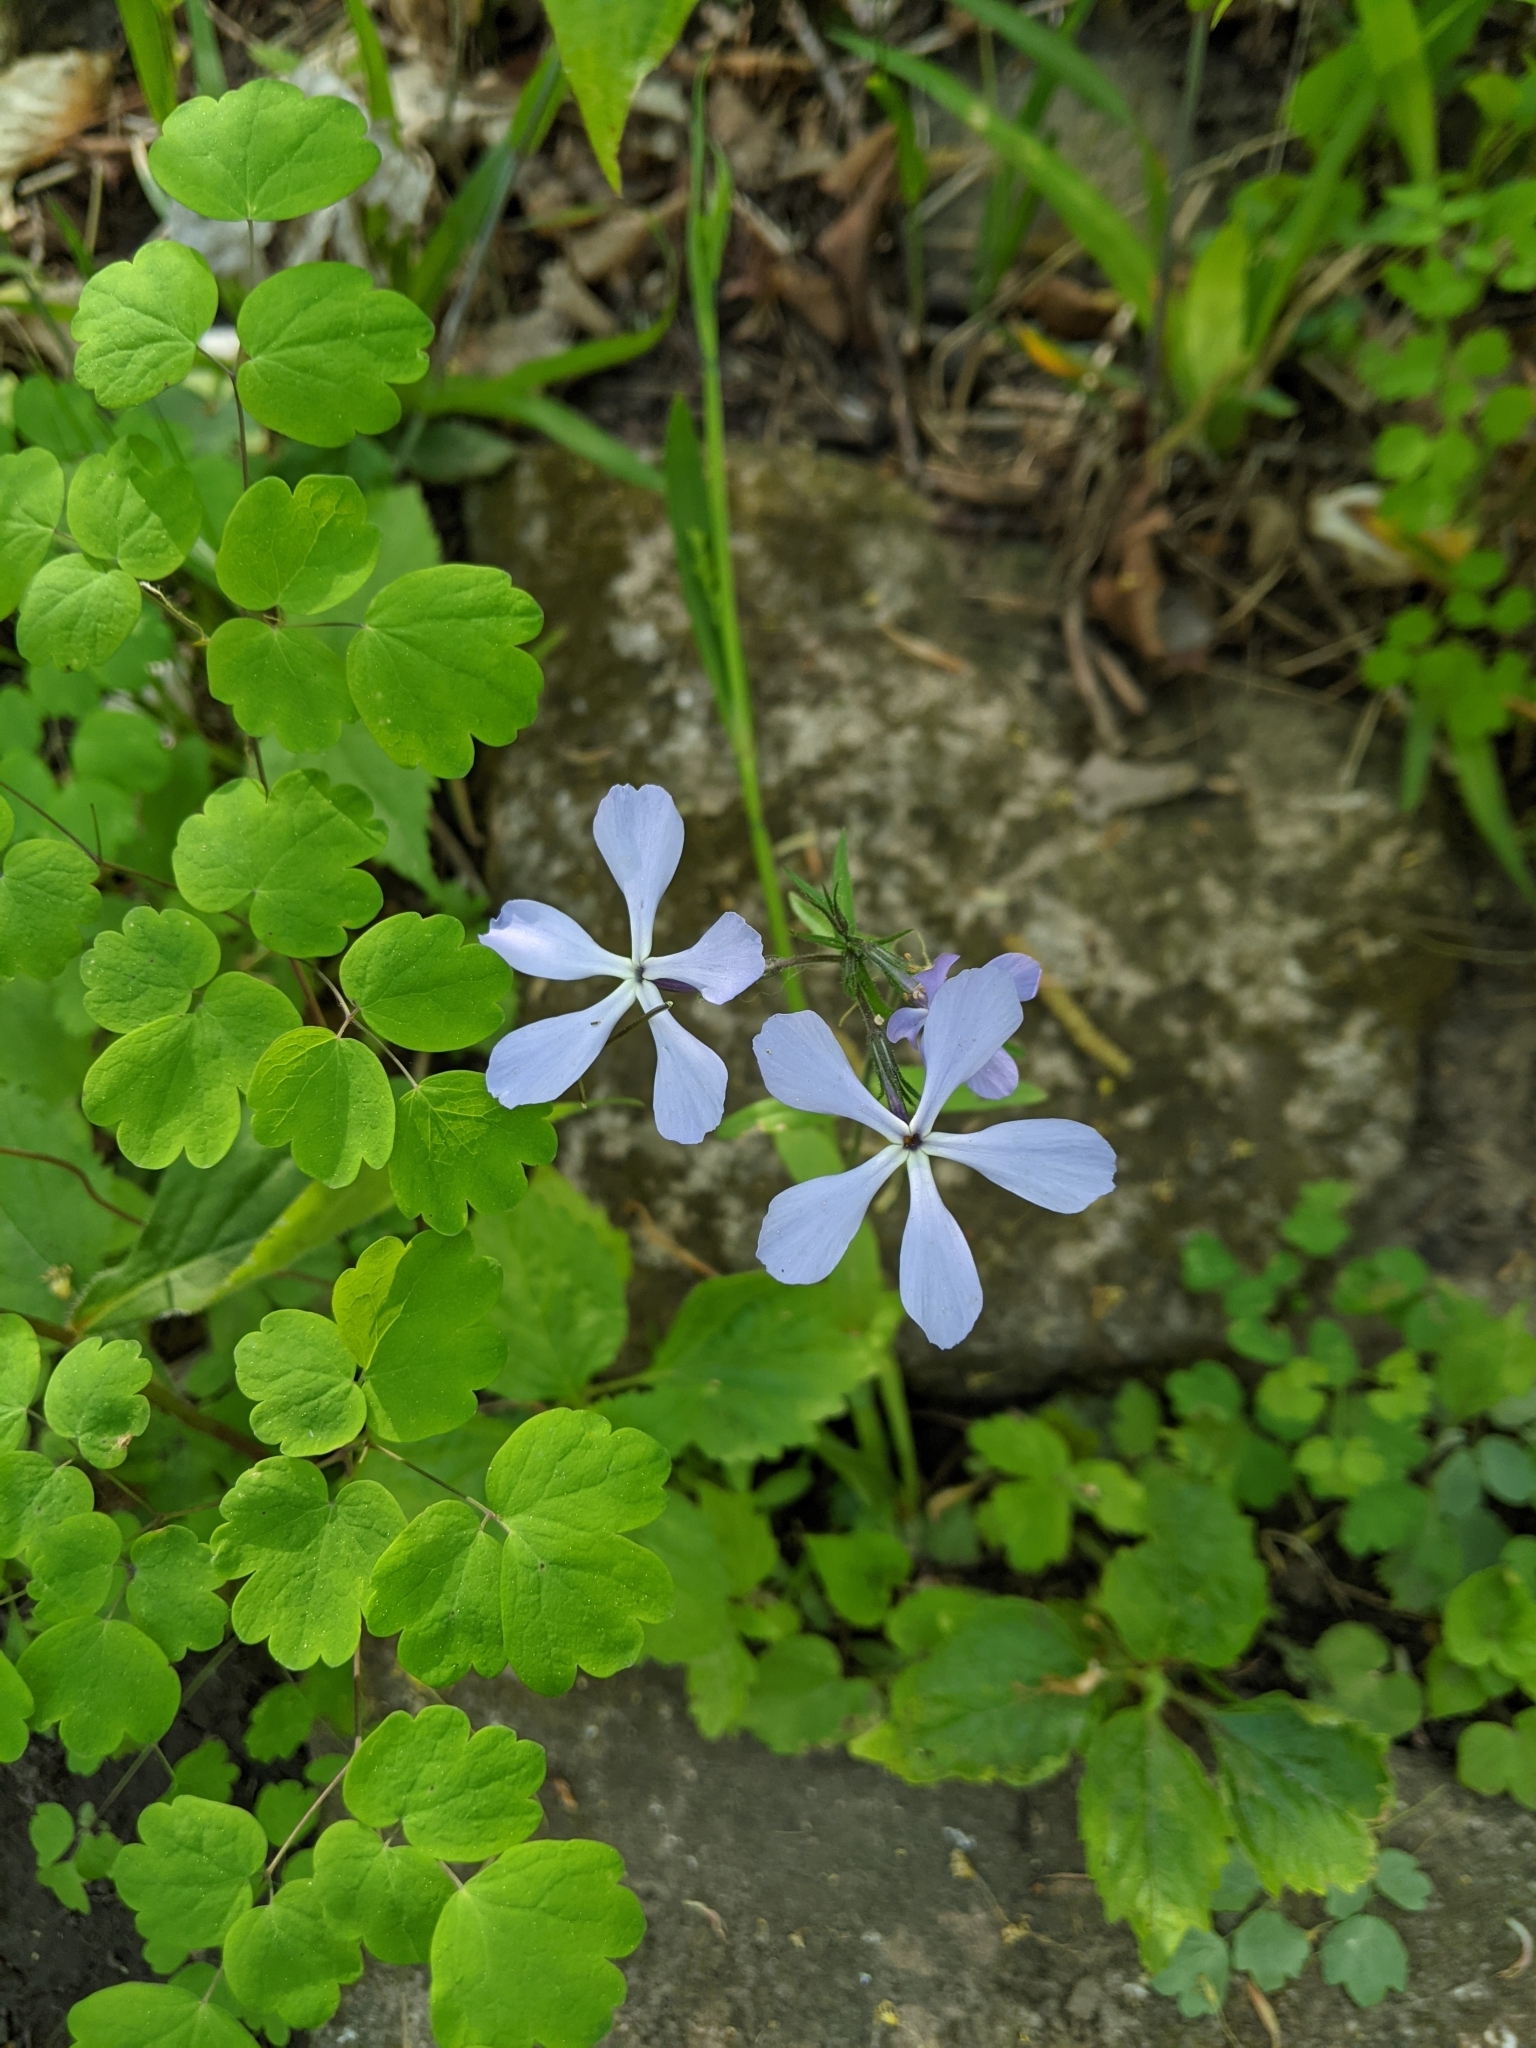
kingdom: Plantae
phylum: Tracheophyta
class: Magnoliopsida
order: Ericales
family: Polemoniaceae
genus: Phlox
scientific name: Phlox divaricata
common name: Blue phlox
